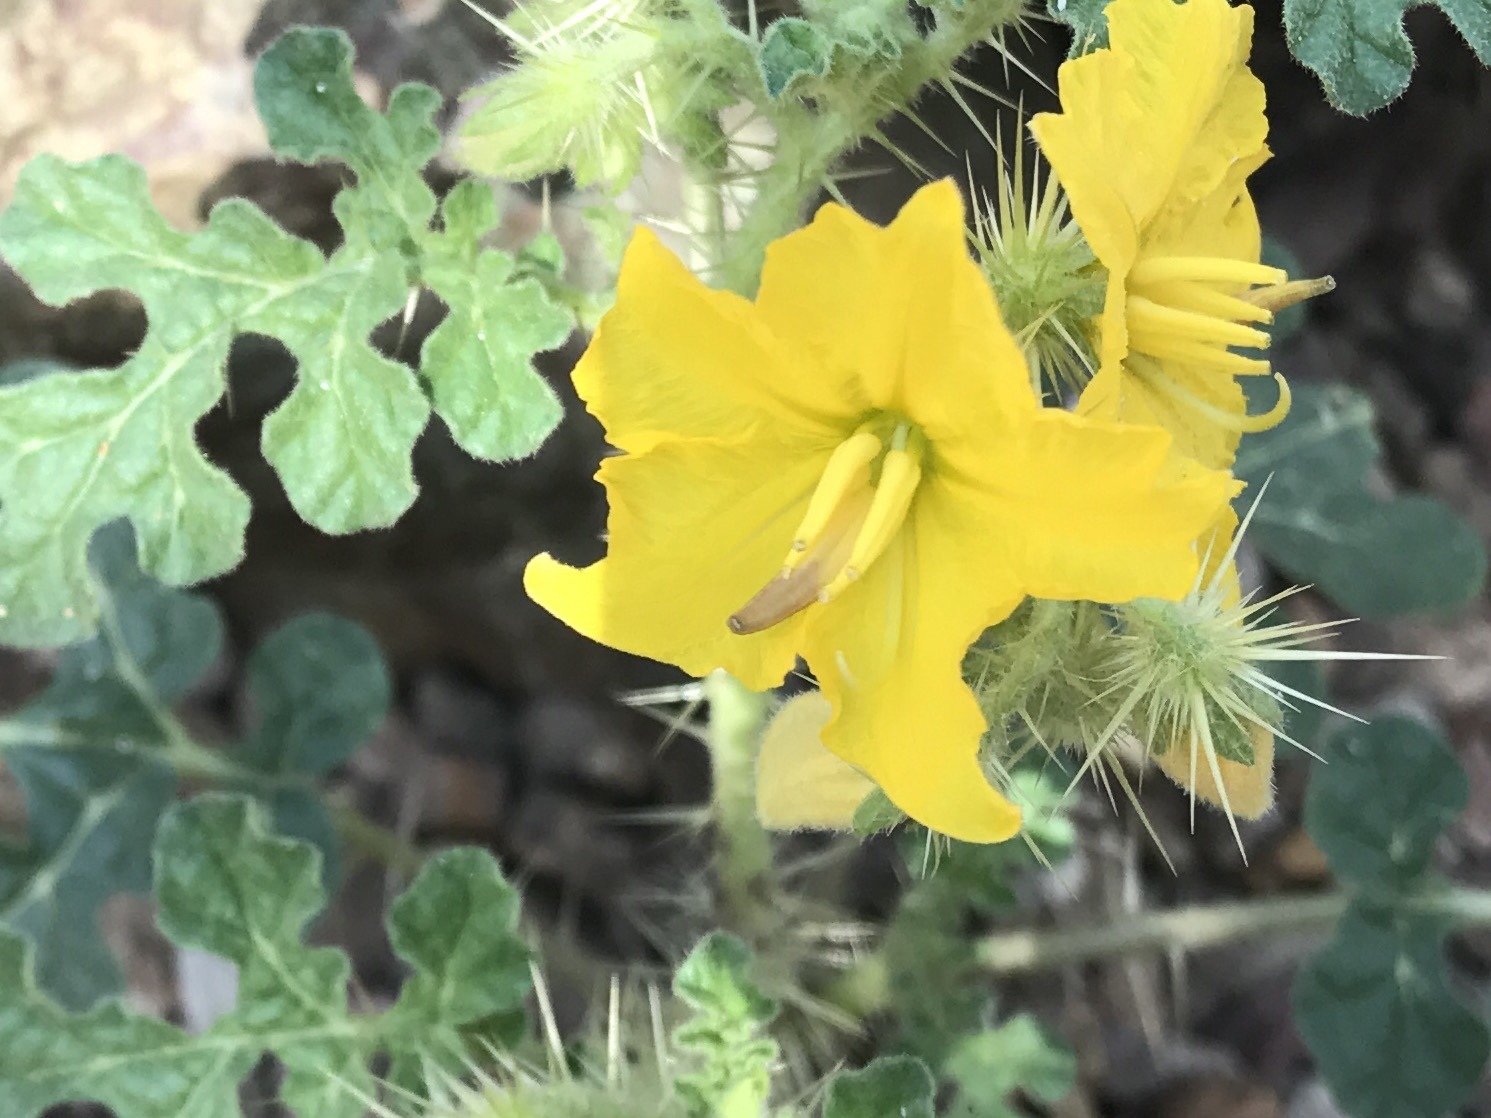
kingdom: Plantae
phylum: Tracheophyta
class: Magnoliopsida
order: Solanales
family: Solanaceae
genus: Solanum
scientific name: Solanum angustifolium
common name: Buffalobur nightshade
